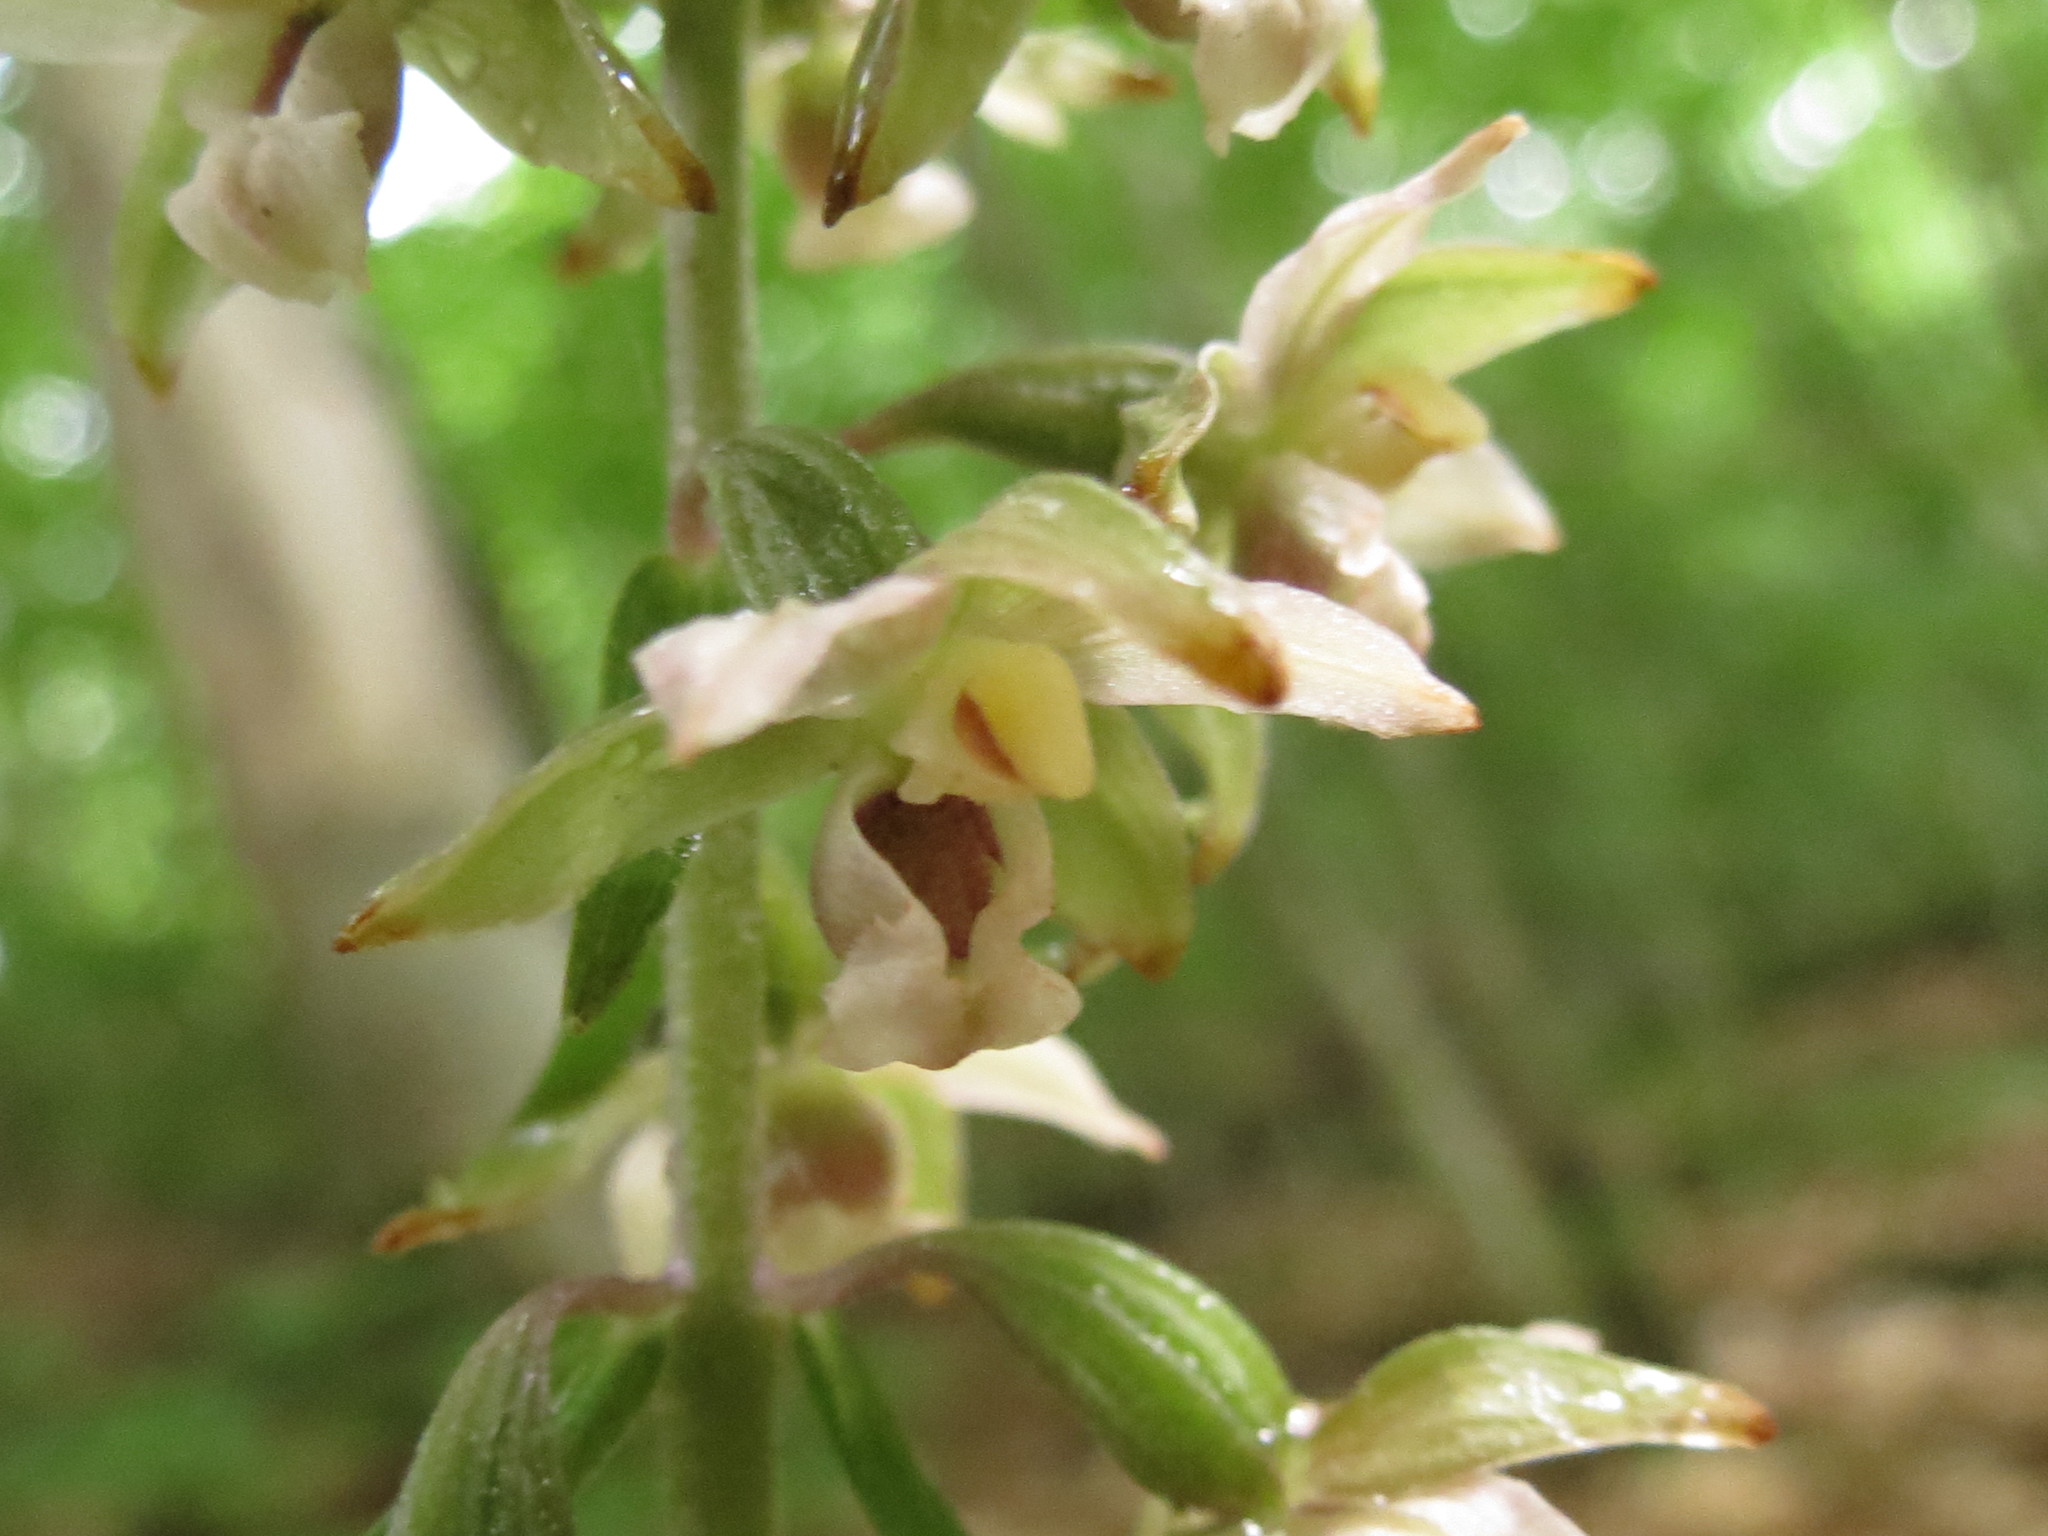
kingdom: Plantae
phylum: Tracheophyta
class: Liliopsida
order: Asparagales
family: Orchidaceae
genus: Epipactis
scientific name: Epipactis helleborine
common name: Broad-leaved helleborine
